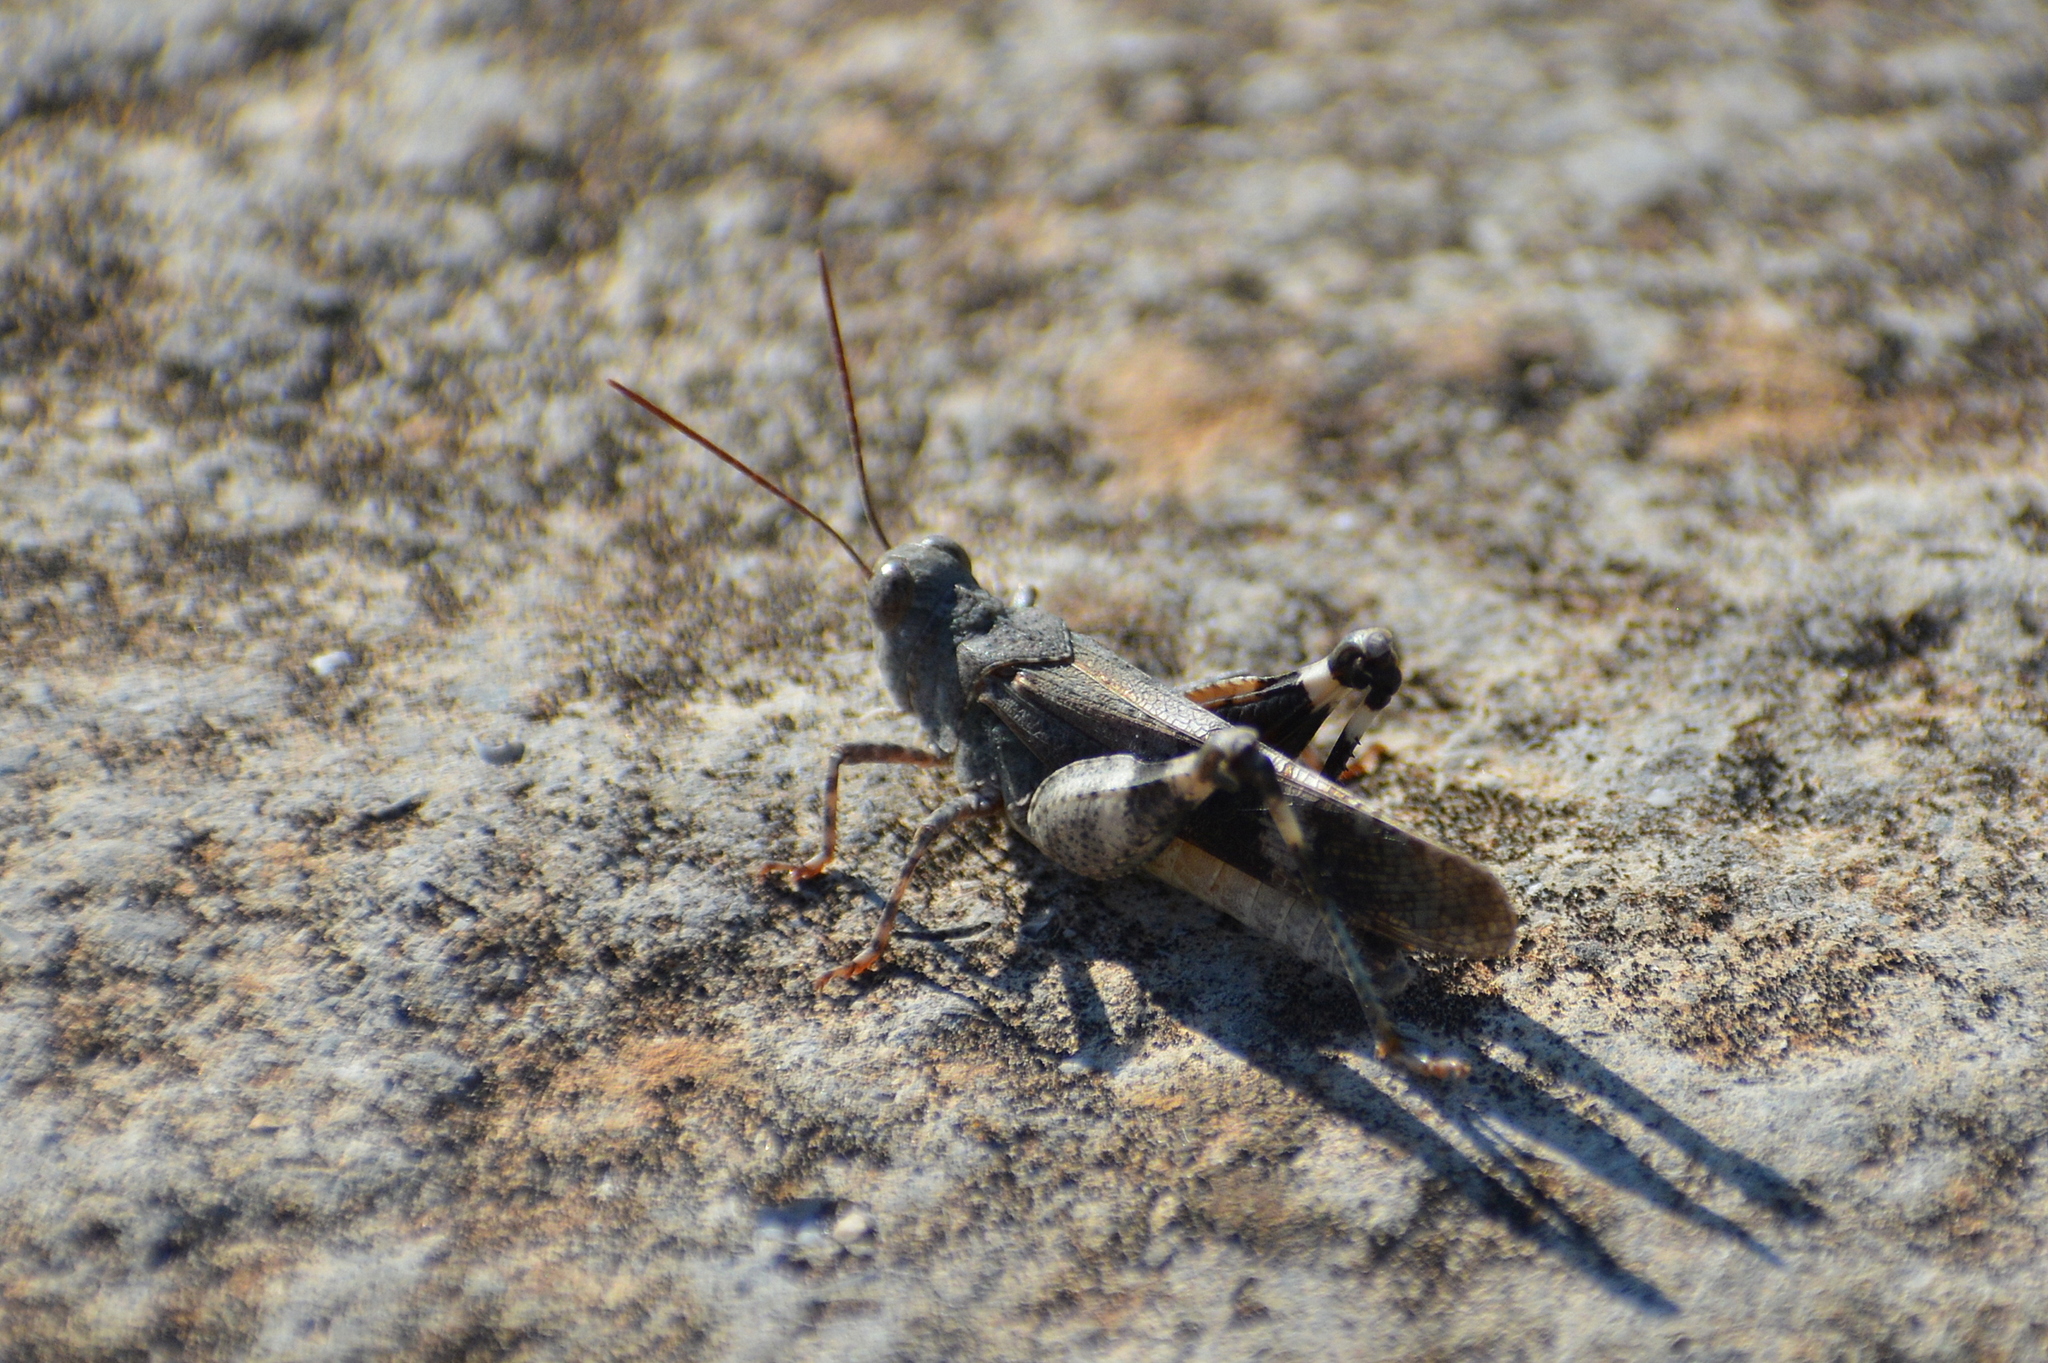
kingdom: Animalia
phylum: Arthropoda
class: Insecta
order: Orthoptera
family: Acrididae
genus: Oedipoda
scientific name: Oedipoda germanica
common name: Red band-winged grasshopper
